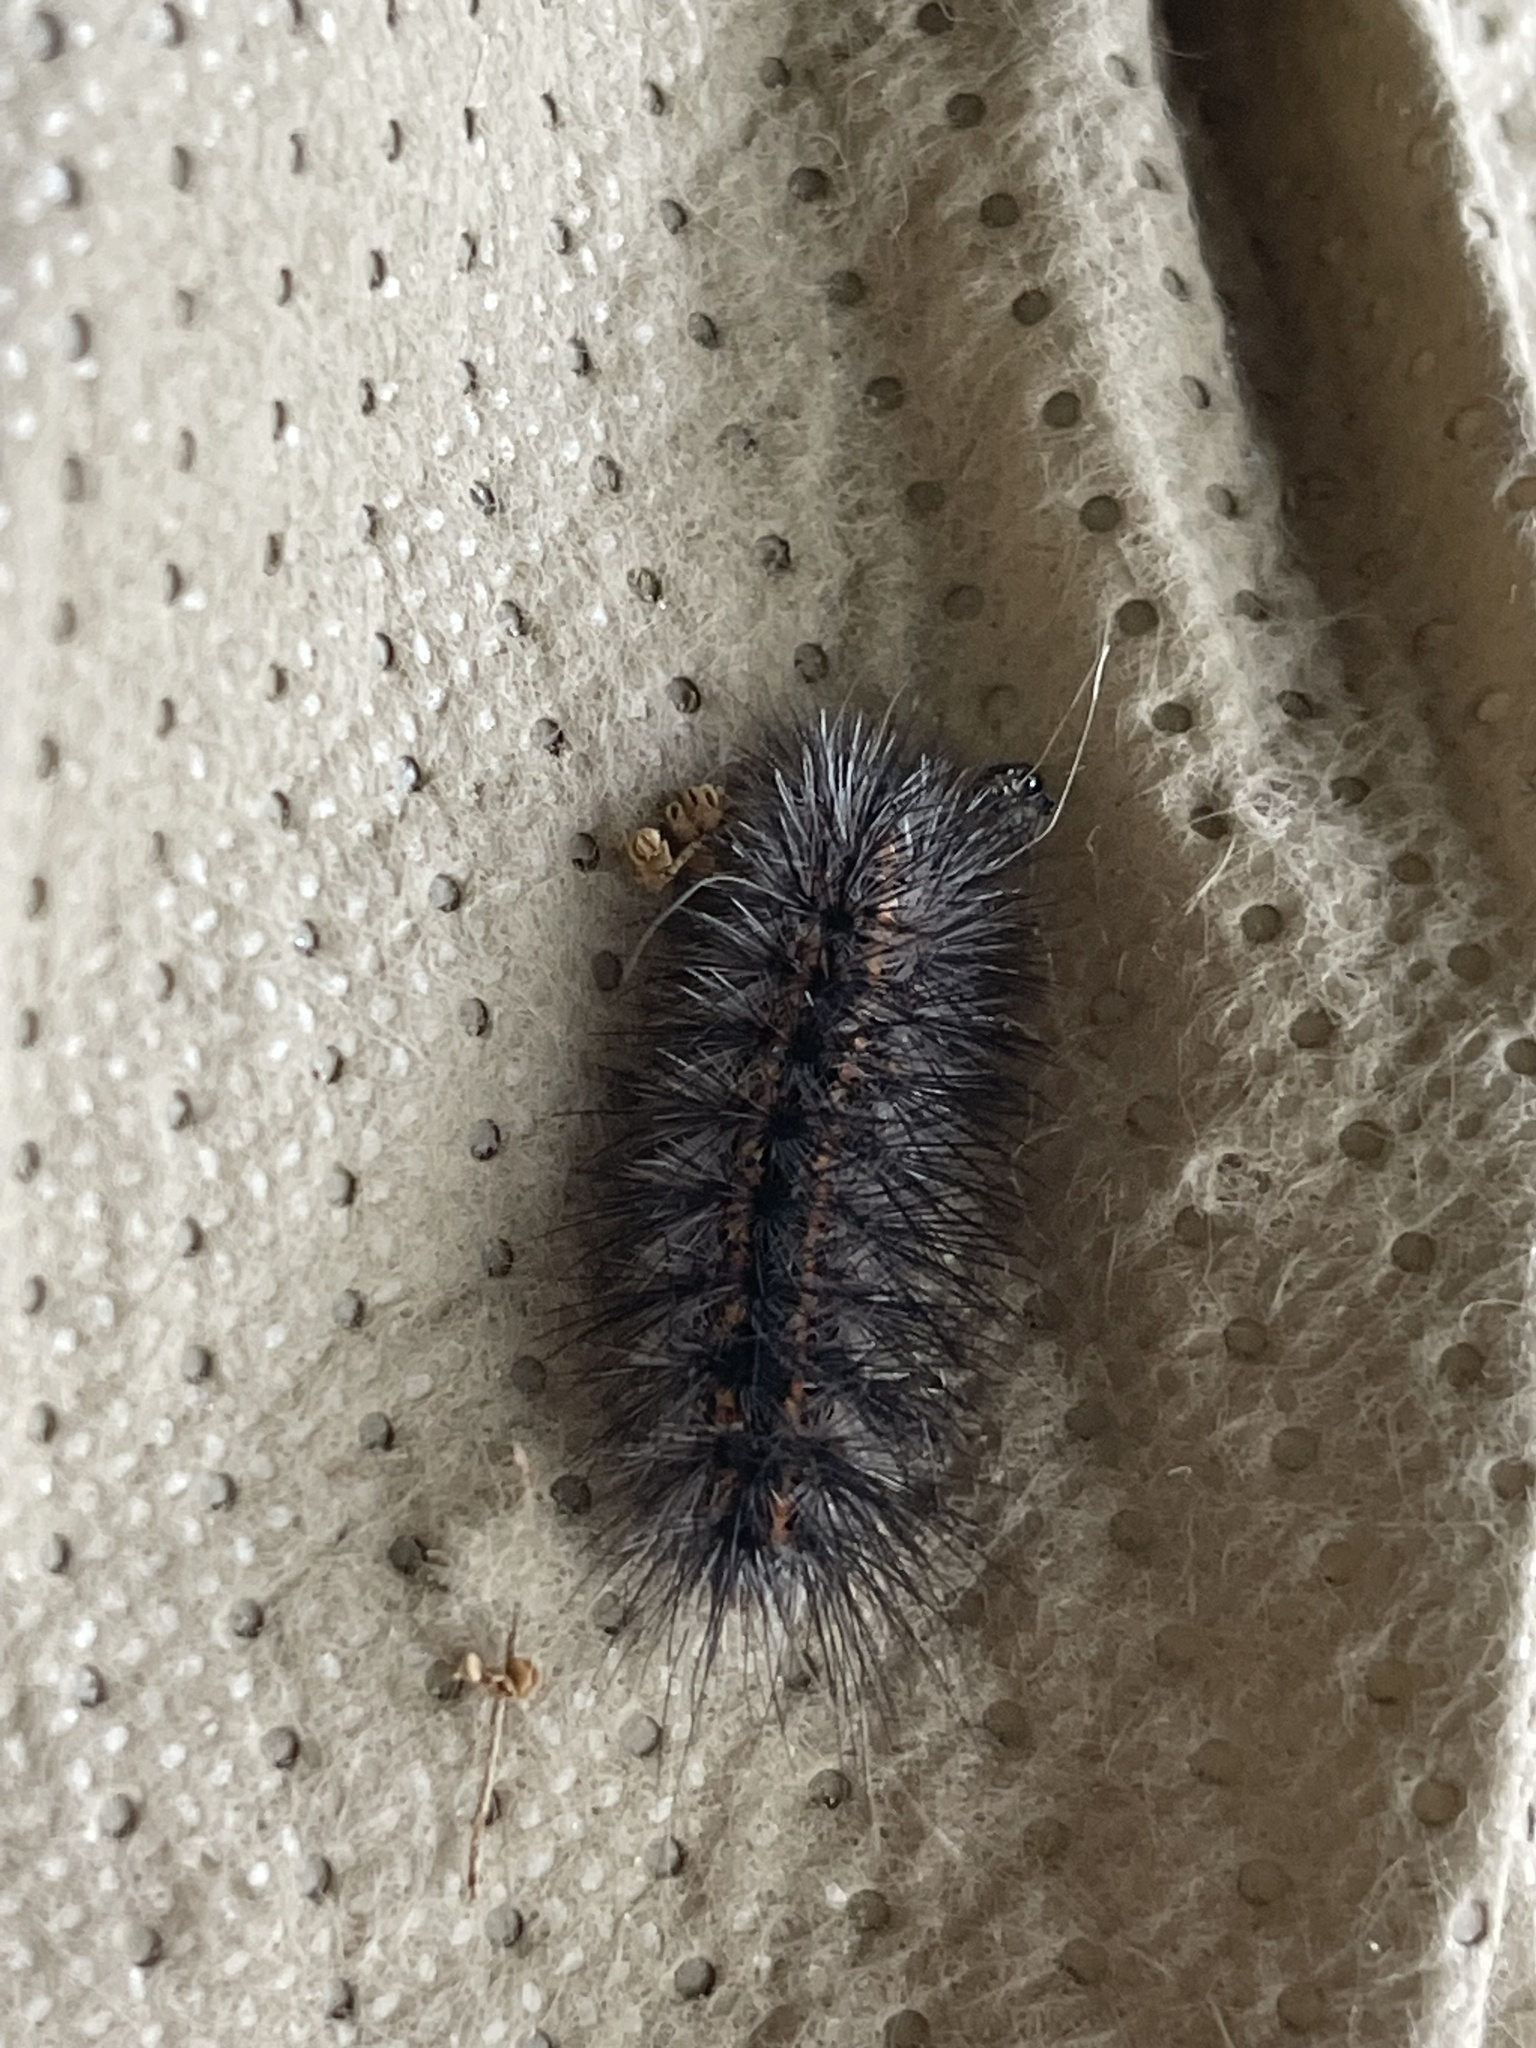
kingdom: Animalia
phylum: Arthropoda
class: Insecta
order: Lepidoptera
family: Erebidae
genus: Spilosoma
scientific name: Spilosoma dubia
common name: Dubious tiger moth
